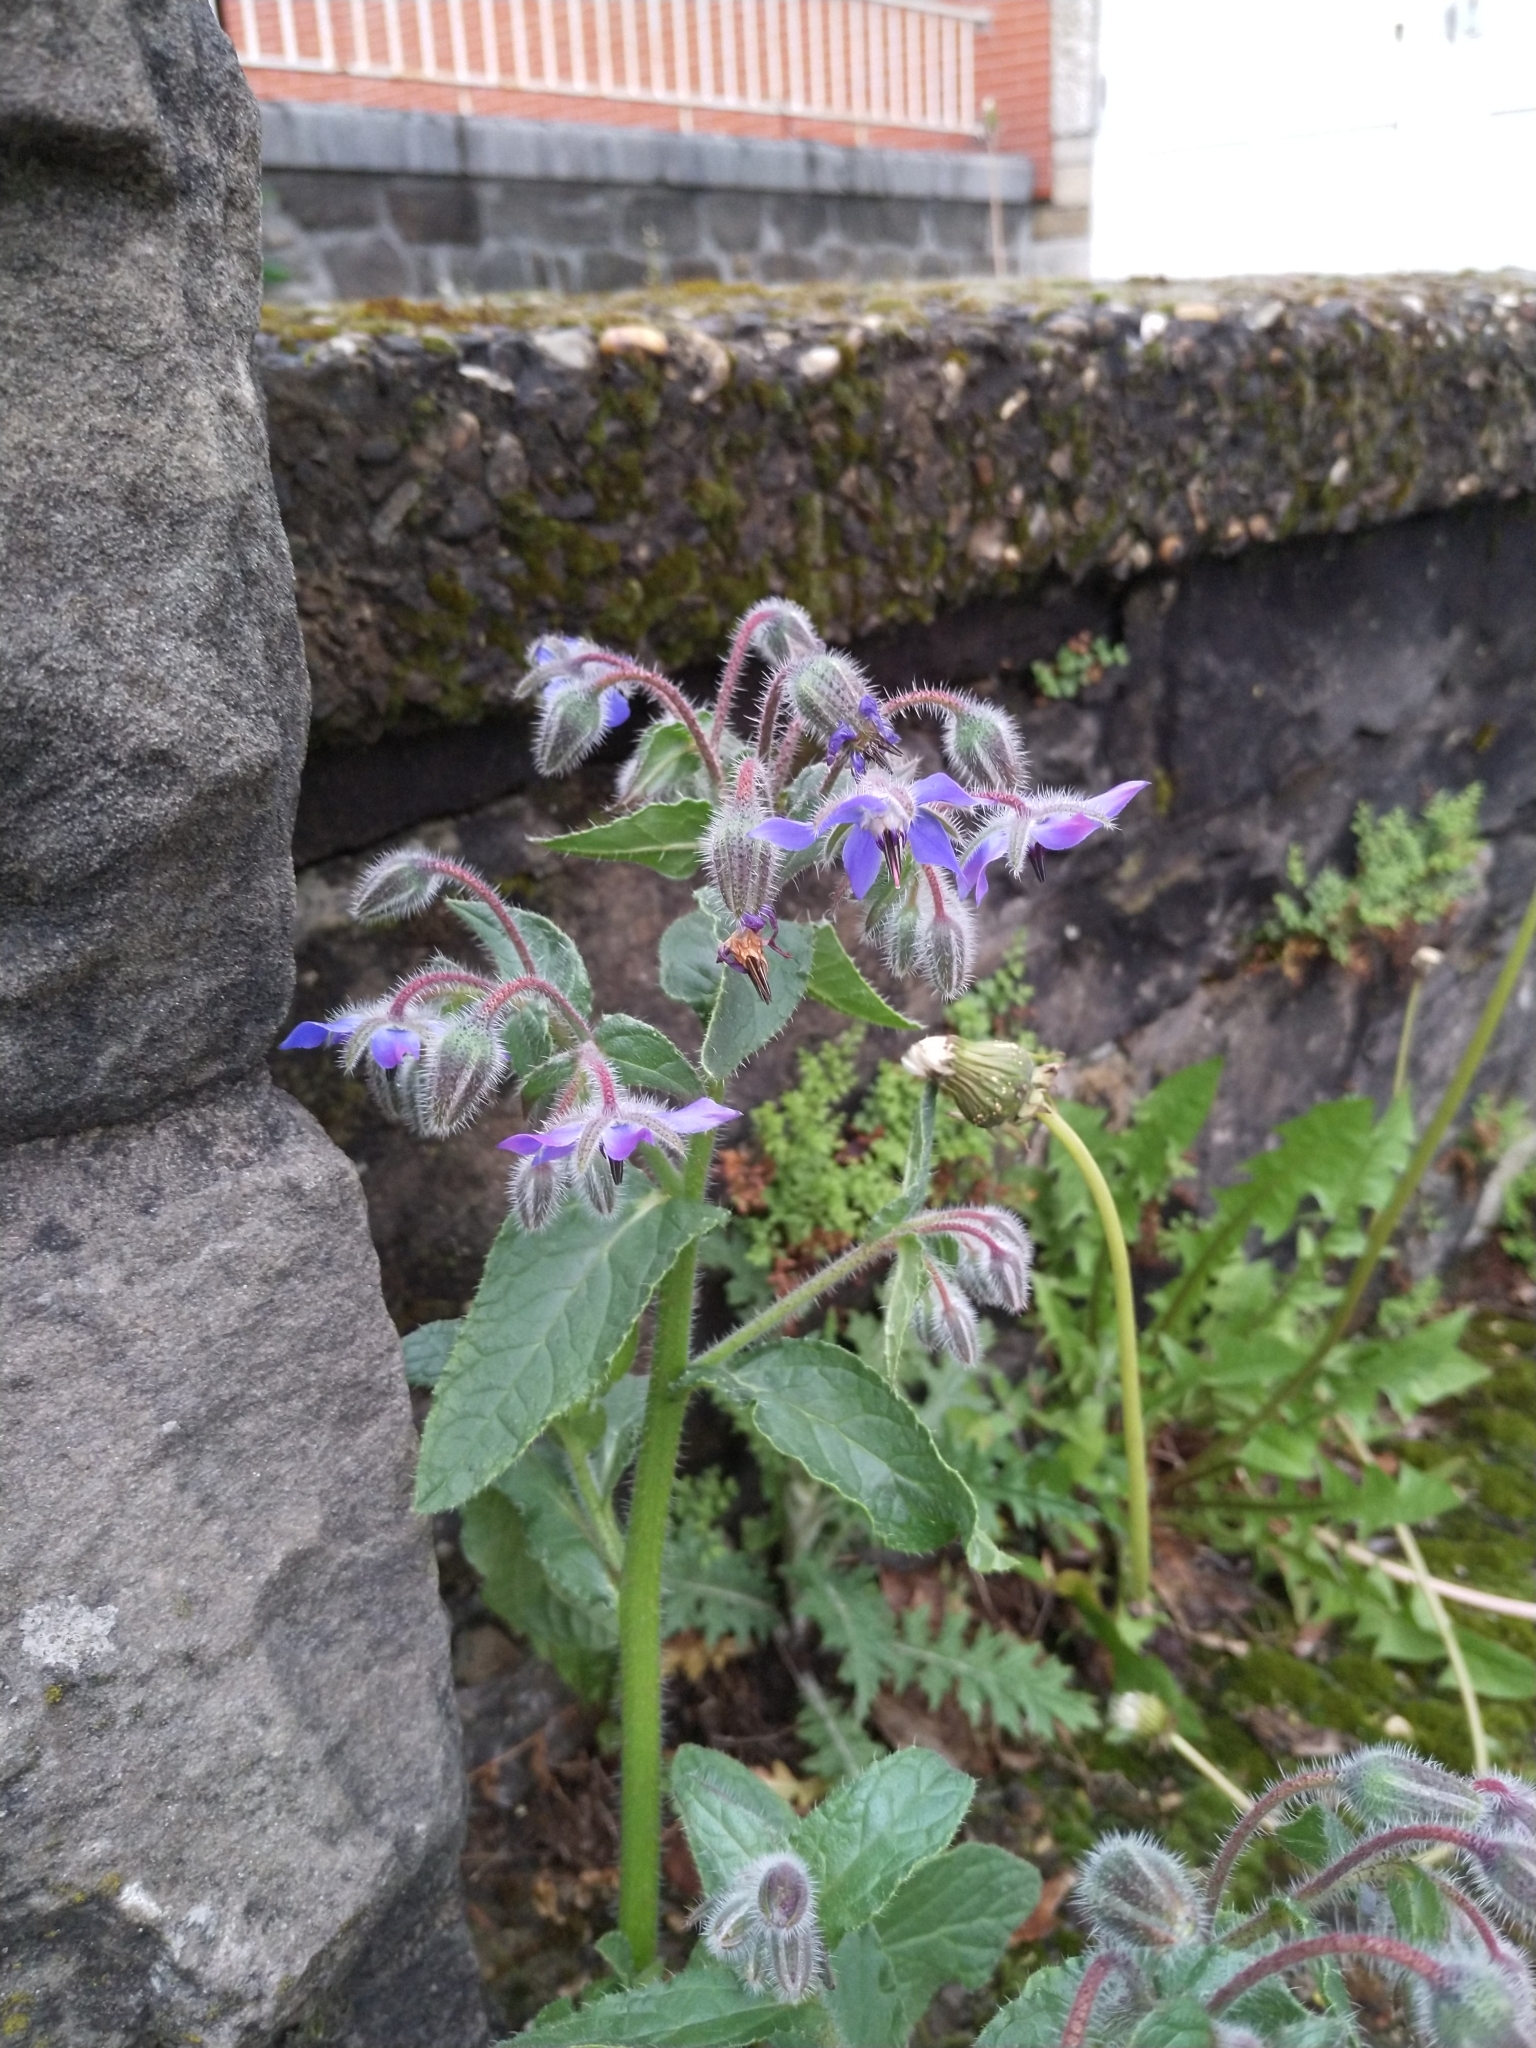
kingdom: Plantae
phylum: Tracheophyta
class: Magnoliopsida
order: Boraginales
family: Boraginaceae
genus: Borago
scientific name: Borago officinalis
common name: Borage
